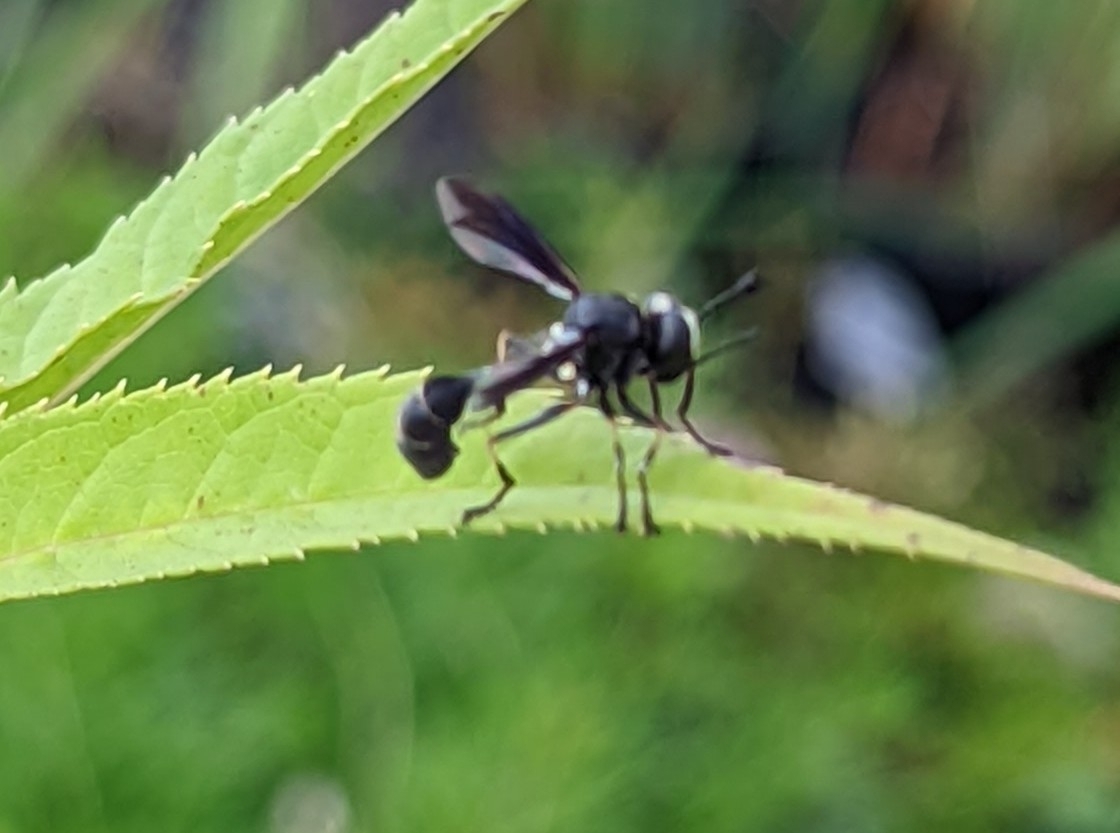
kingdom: Animalia
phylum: Arthropoda
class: Insecta
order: Diptera
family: Conopidae
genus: Physocephala
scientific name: Physocephala tibialis
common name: Common eastern physocephala
